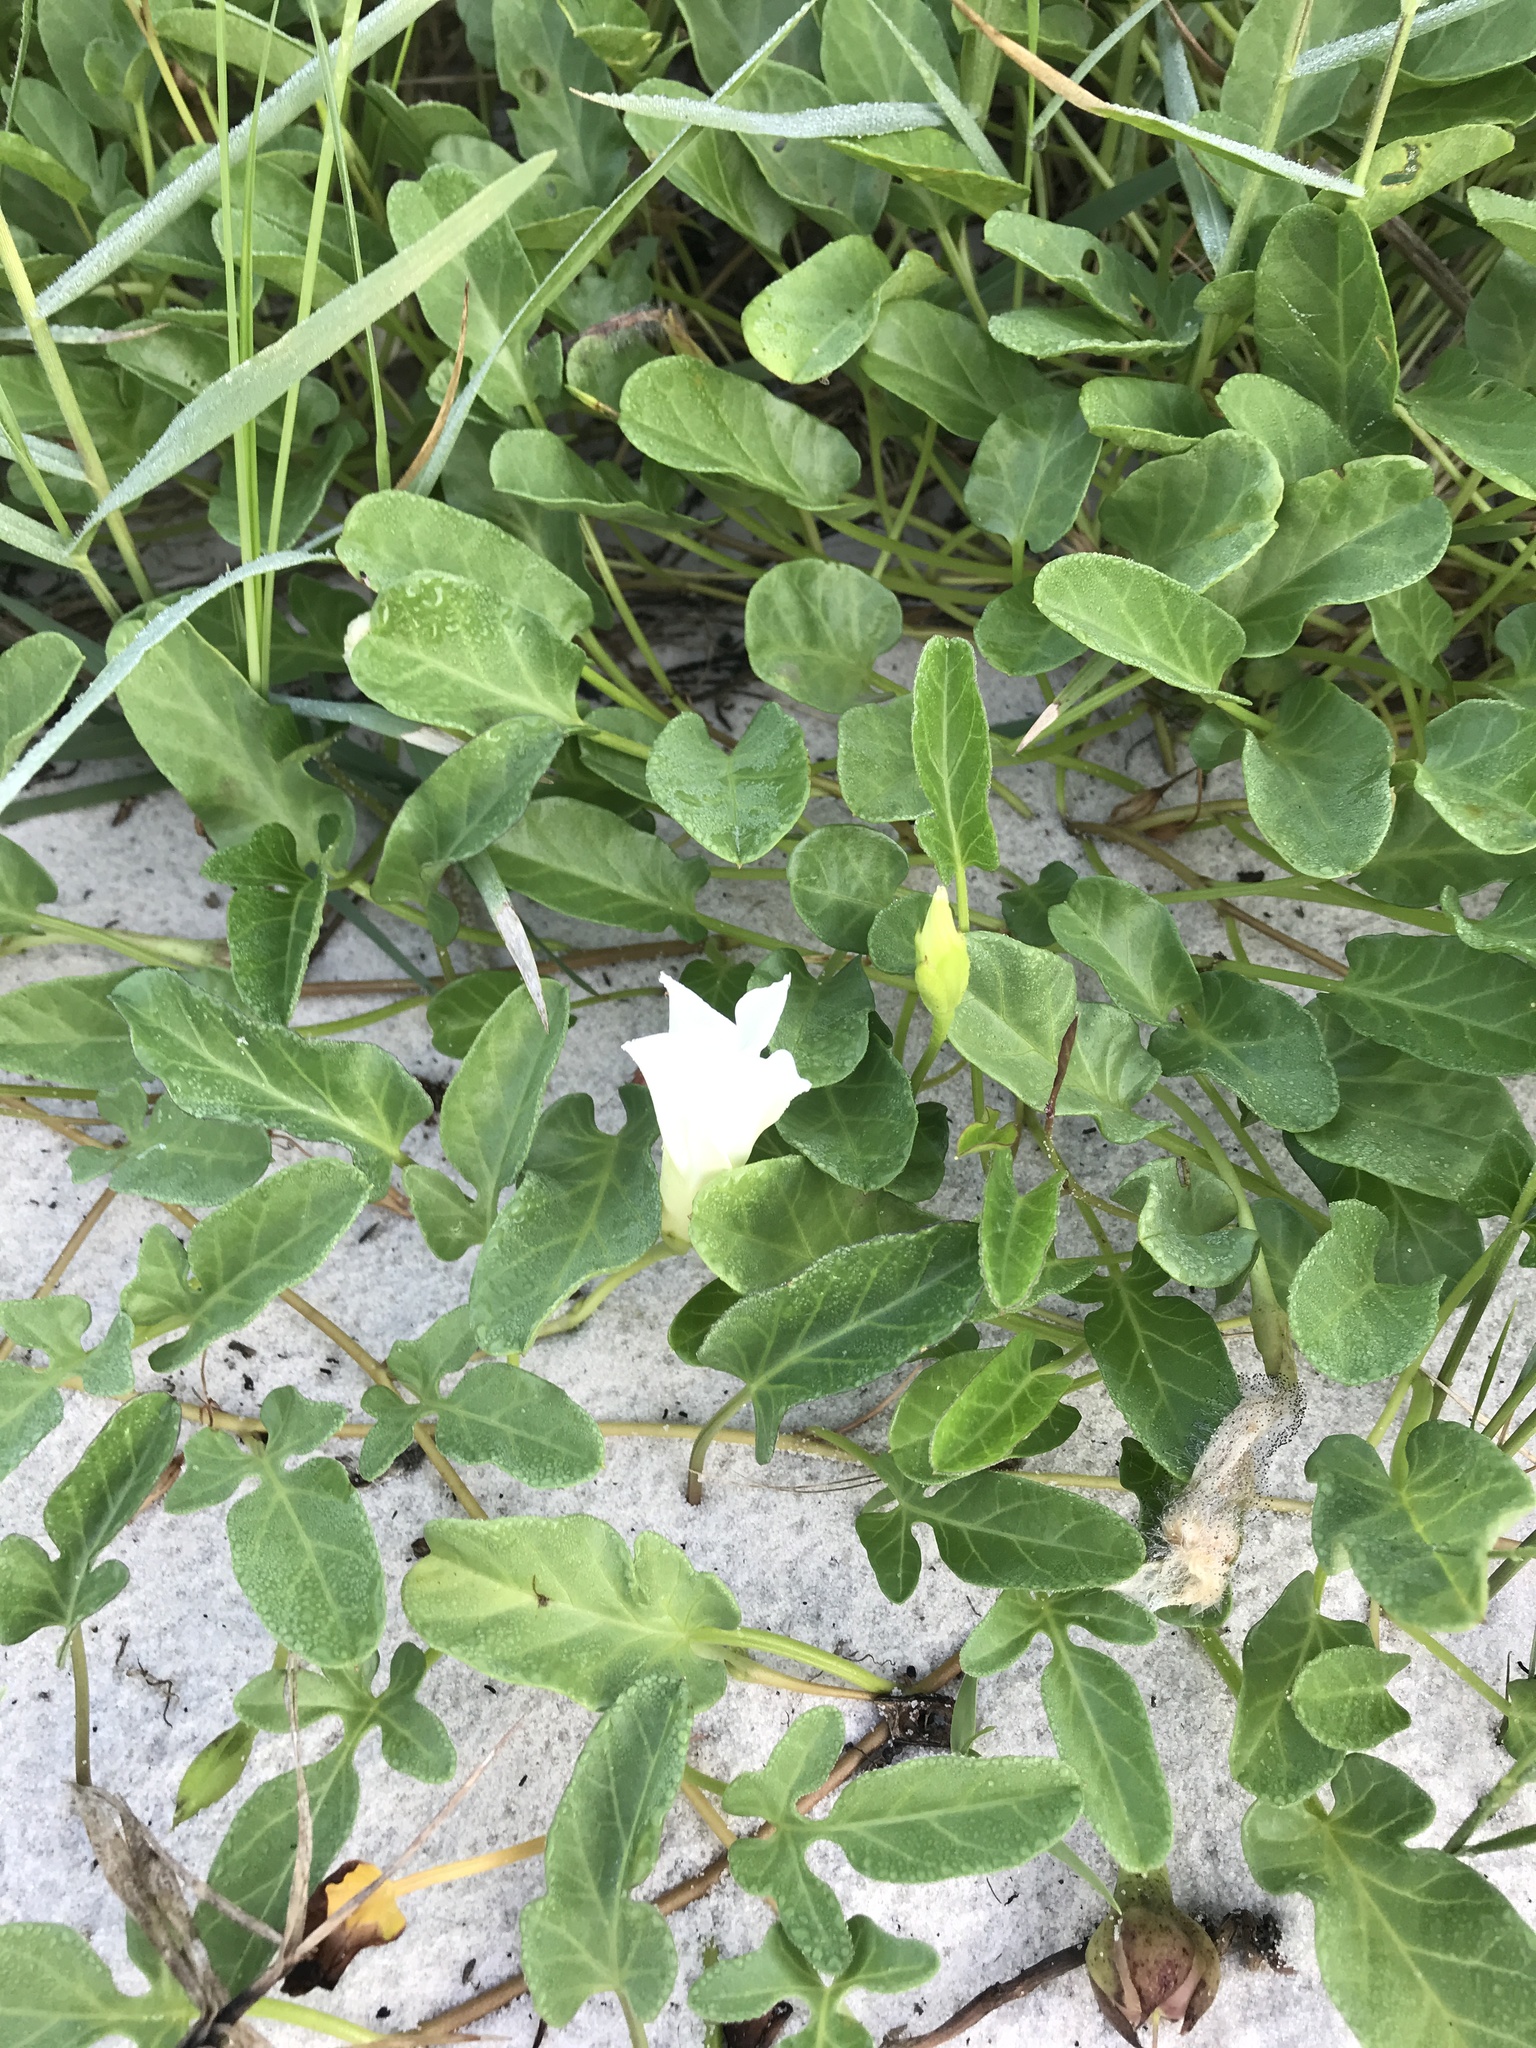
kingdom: Plantae
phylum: Tracheophyta
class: Magnoliopsida
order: Solanales
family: Convolvulaceae
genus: Ipomoea
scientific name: Ipomoea imperati
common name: Fiddle-leaf morning-glory
